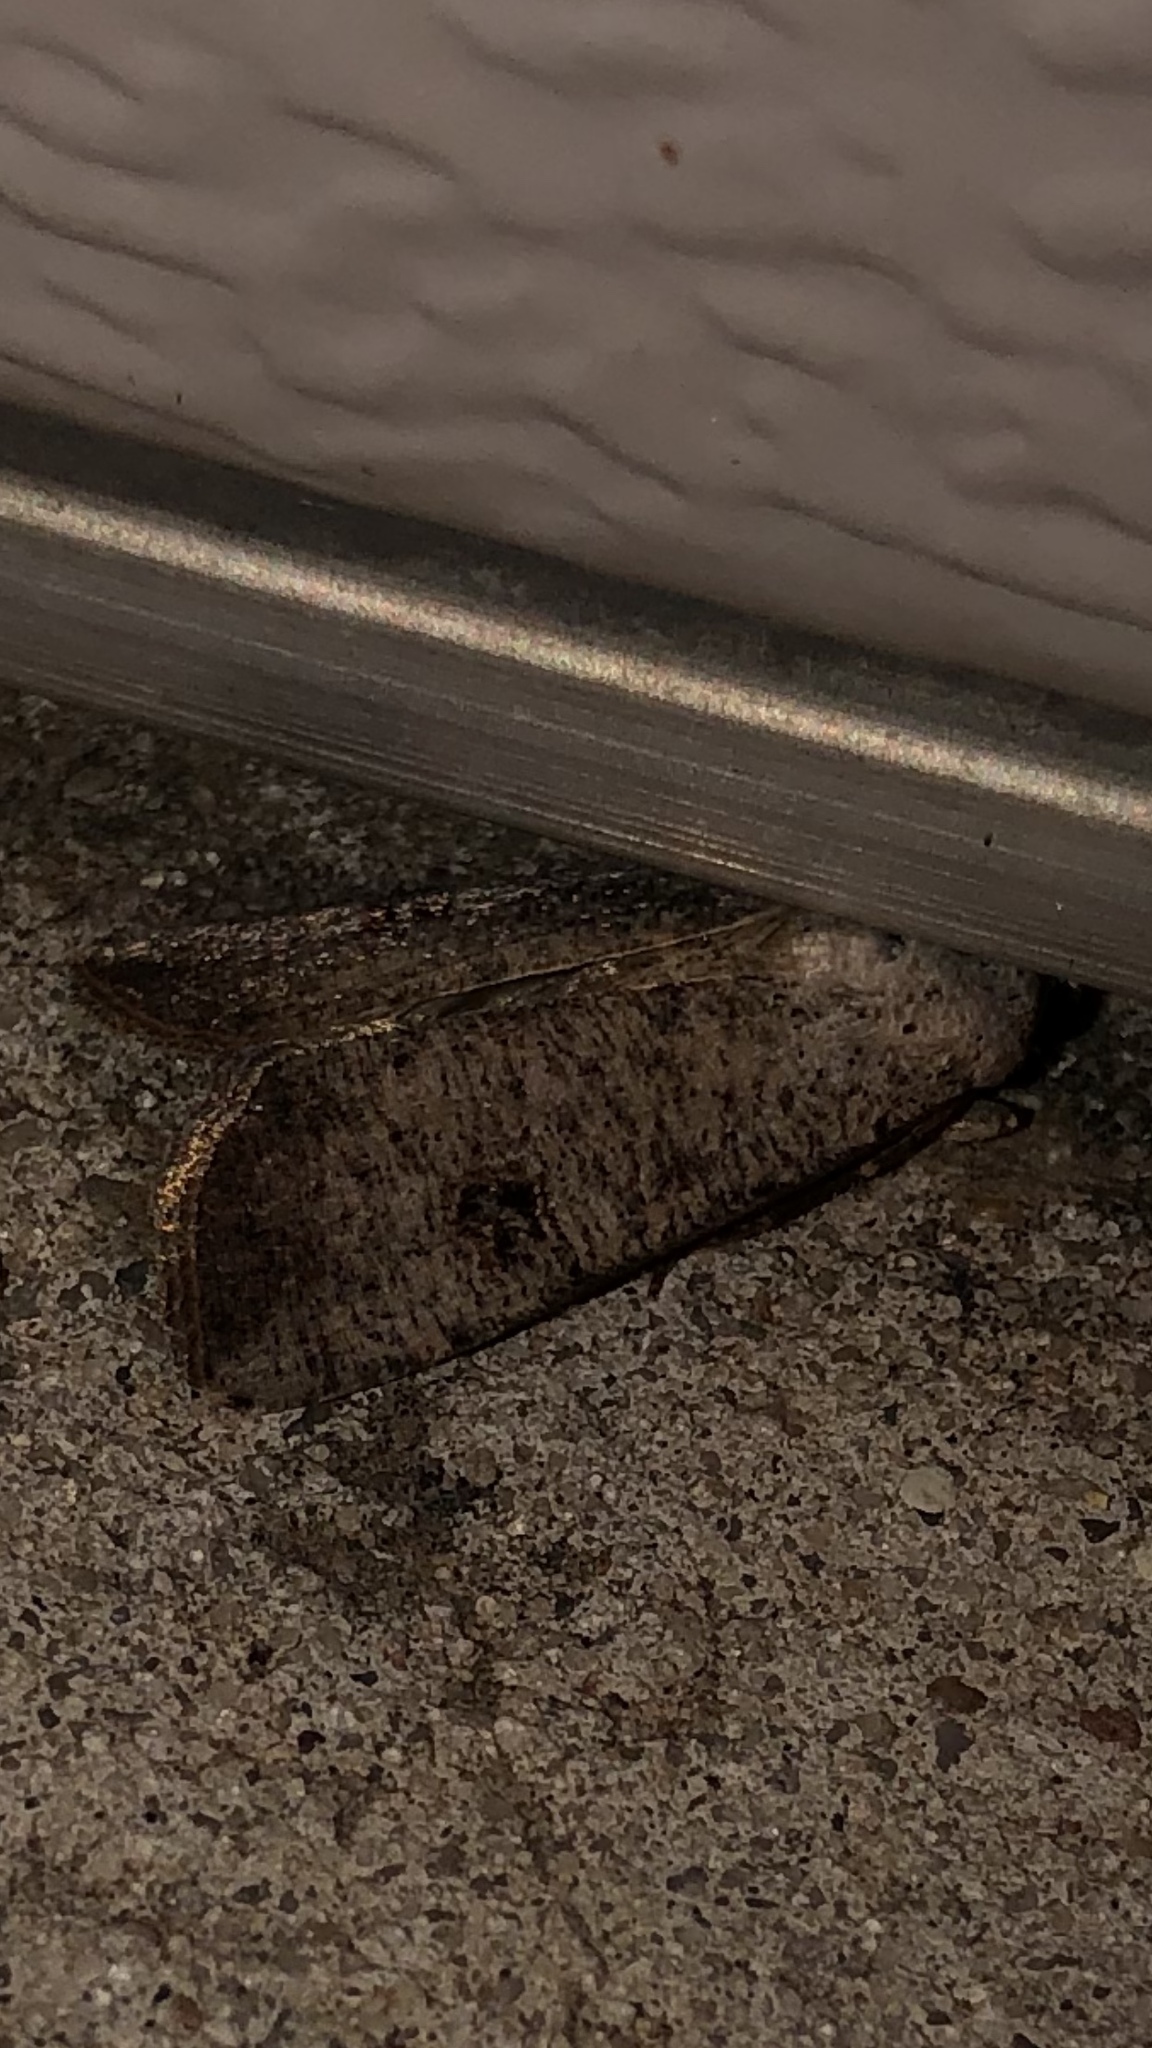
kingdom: Animalia
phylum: Arthropoda
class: Insecta
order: Lepidoptera
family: Noctuidae
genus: Anicla
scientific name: Anicla infecta
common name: Green cutworm
